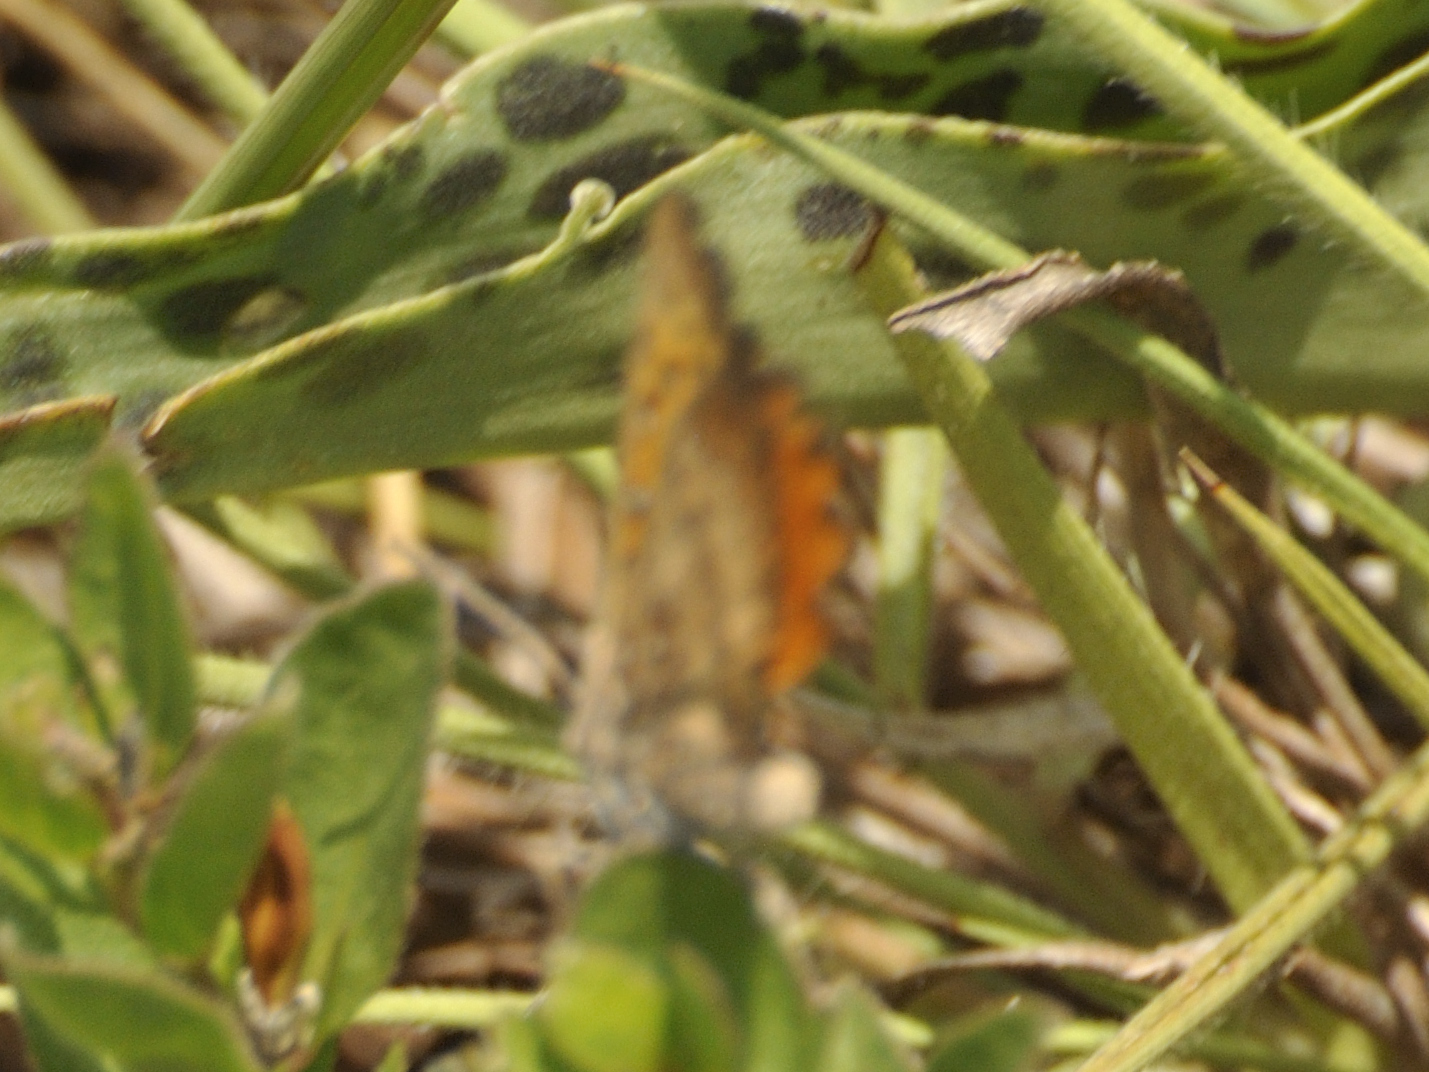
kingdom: Animalia
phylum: Arthropoda
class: Insecta
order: Lepidoptera
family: Lycaenidae
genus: Aloeides
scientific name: Aloeides swanepoeli
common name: Swanepoel's copper
